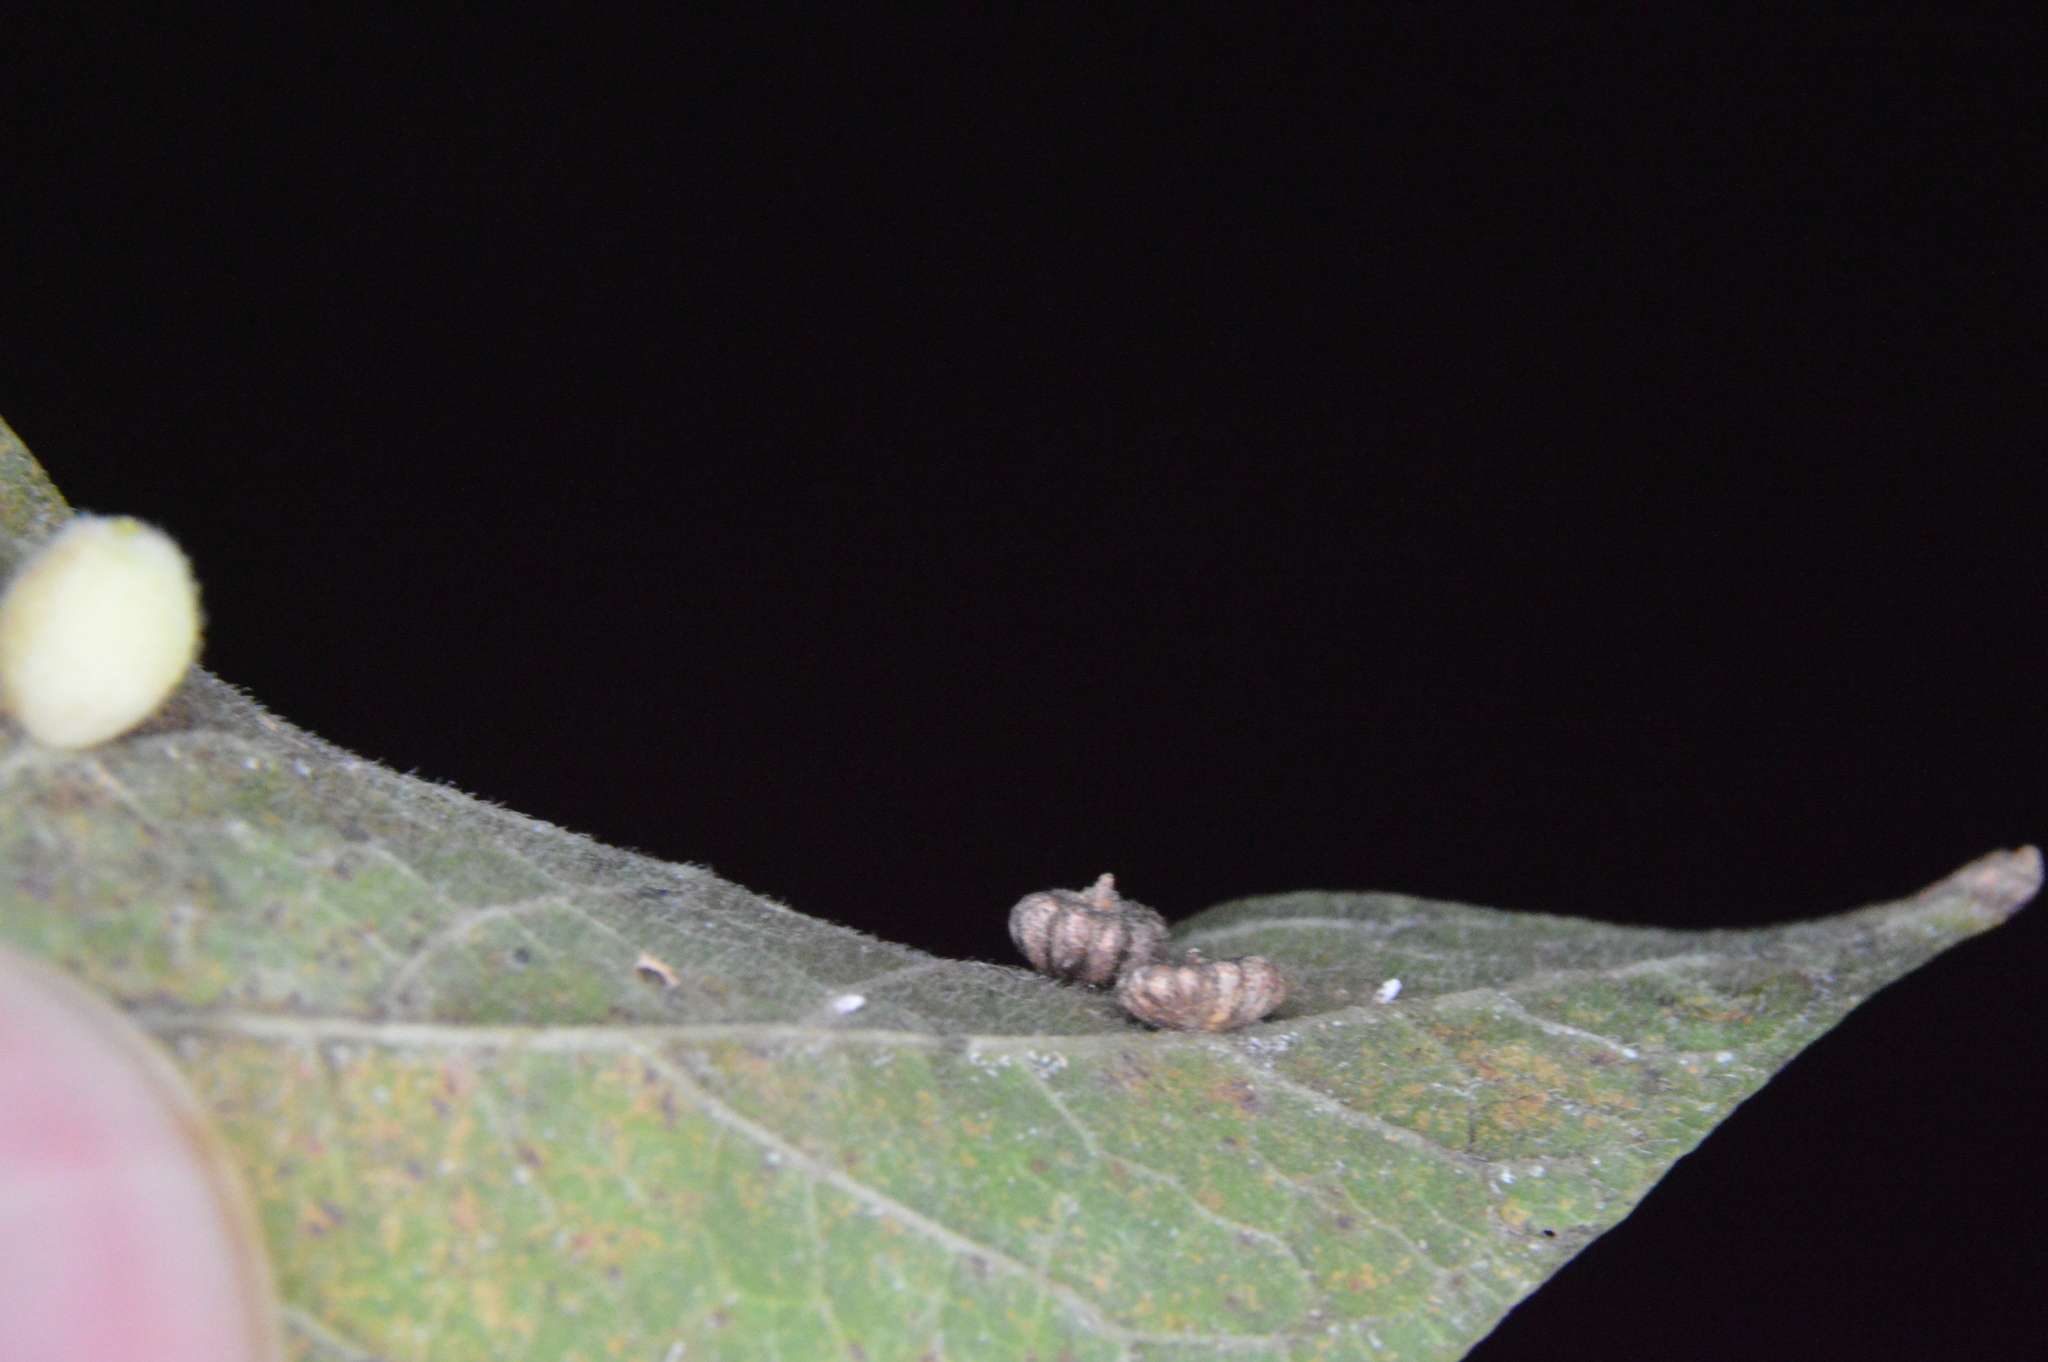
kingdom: Animalia
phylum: Arthropoda
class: Insecta
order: Diptera
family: Cecidomyiidae
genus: Celticecis
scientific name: Celticecis capsularis
